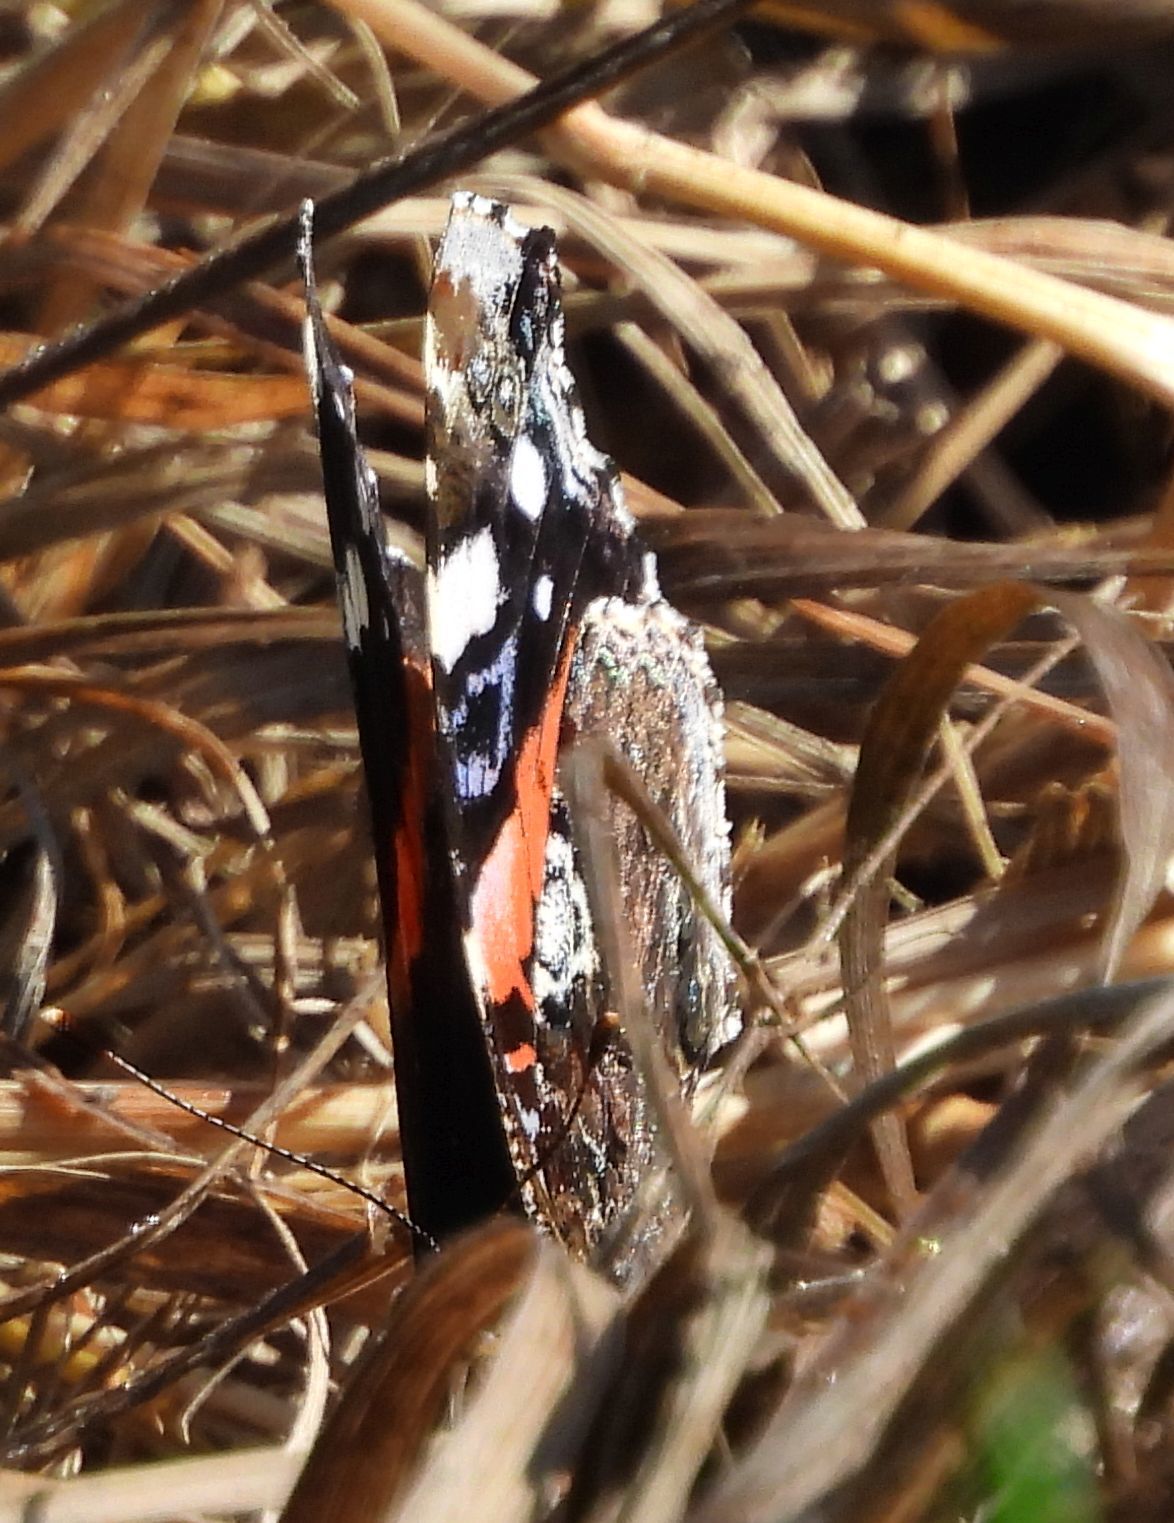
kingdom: Animalia
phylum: Arthropoda
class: Insecta
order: Lepidoptera
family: Nymphalidae
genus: Vanessa
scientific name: Vanessa atalanta
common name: Red admiral
